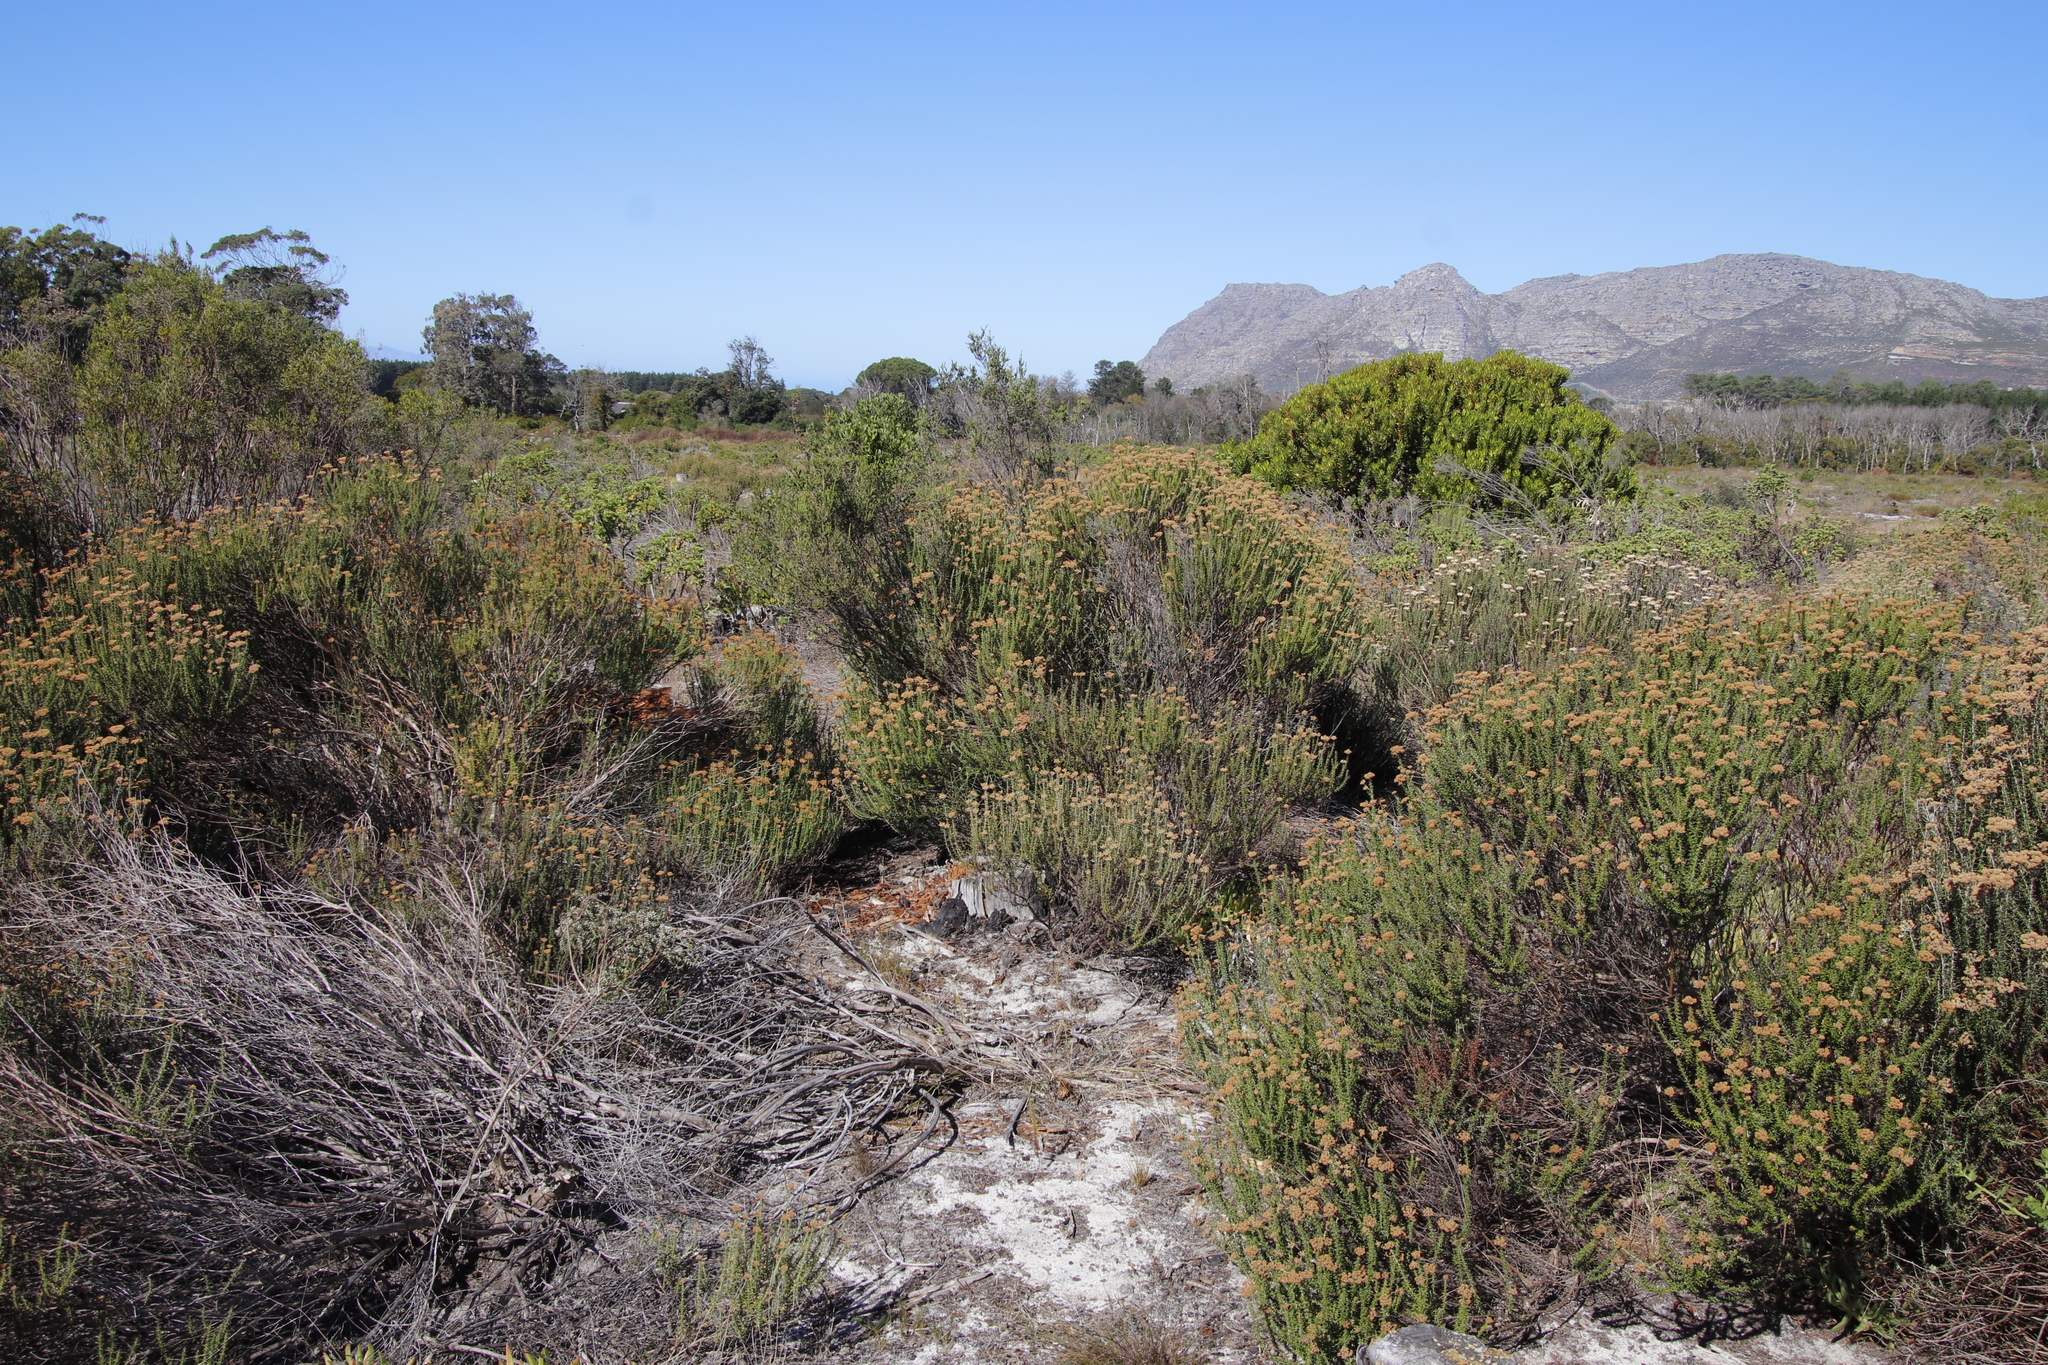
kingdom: Plantae
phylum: Tracheophyta
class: Magnoliopsida
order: Asterales
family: Asteraceae
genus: Metalasia
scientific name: Metalasia densa
